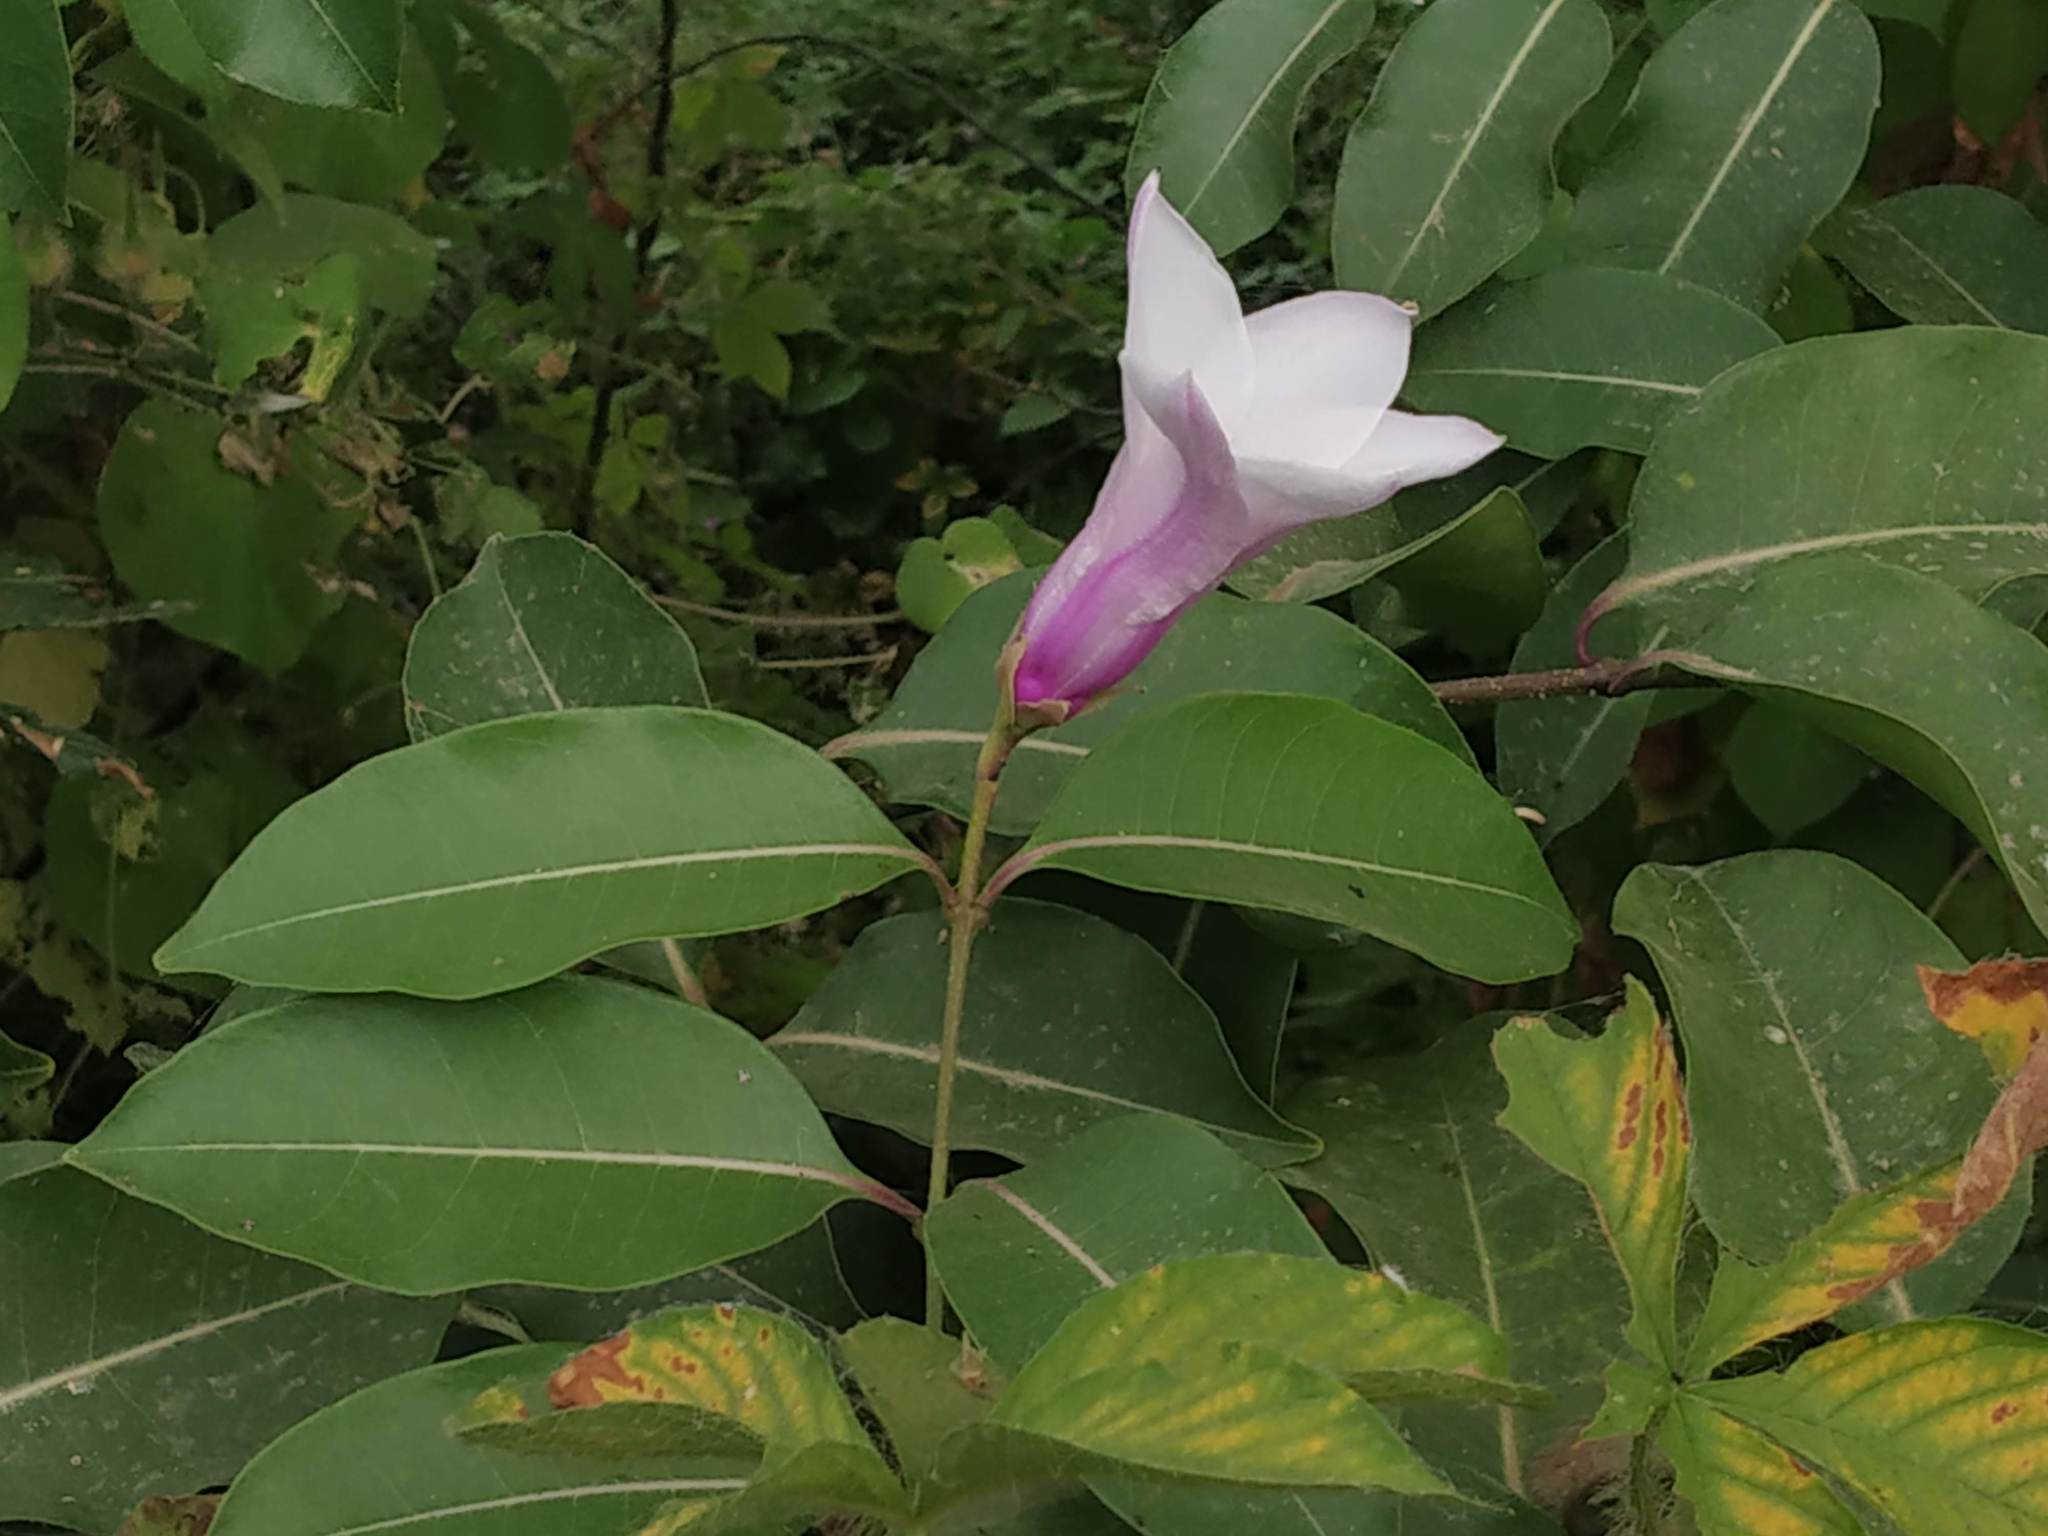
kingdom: Plantae
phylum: Tracheophyta
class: Magnoliopsida
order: Gentianales
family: Apocynaceae
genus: Cryptostegia
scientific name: Cryptostegia grandiflora
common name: Palay rubbervine
